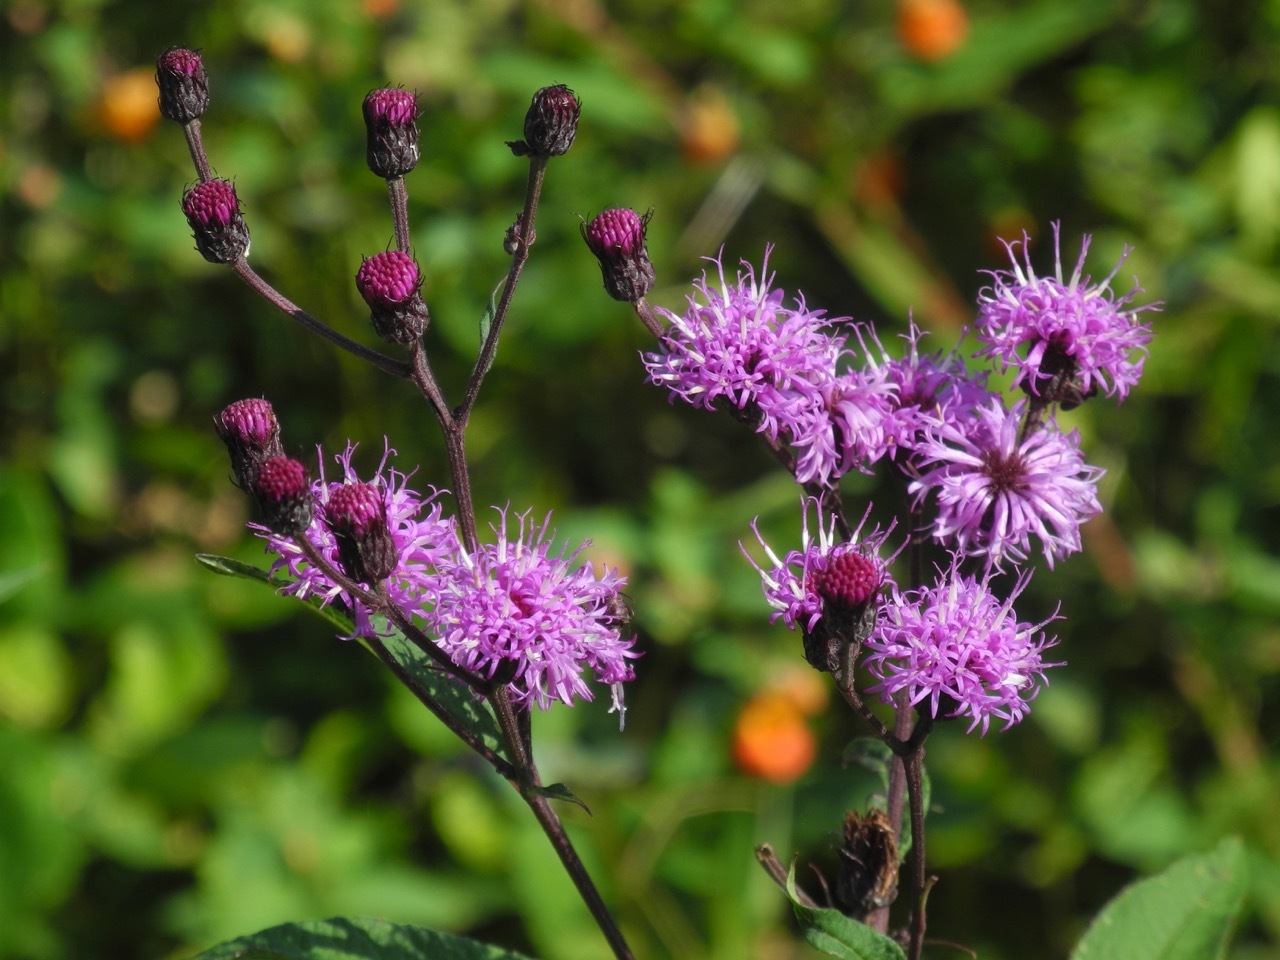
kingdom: Plantae
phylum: Tracheophyta
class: Magnoliopsida
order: Asterales
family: Asteraceae
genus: Vernonia
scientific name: Vernonia noveboracensis
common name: New york ironweed
